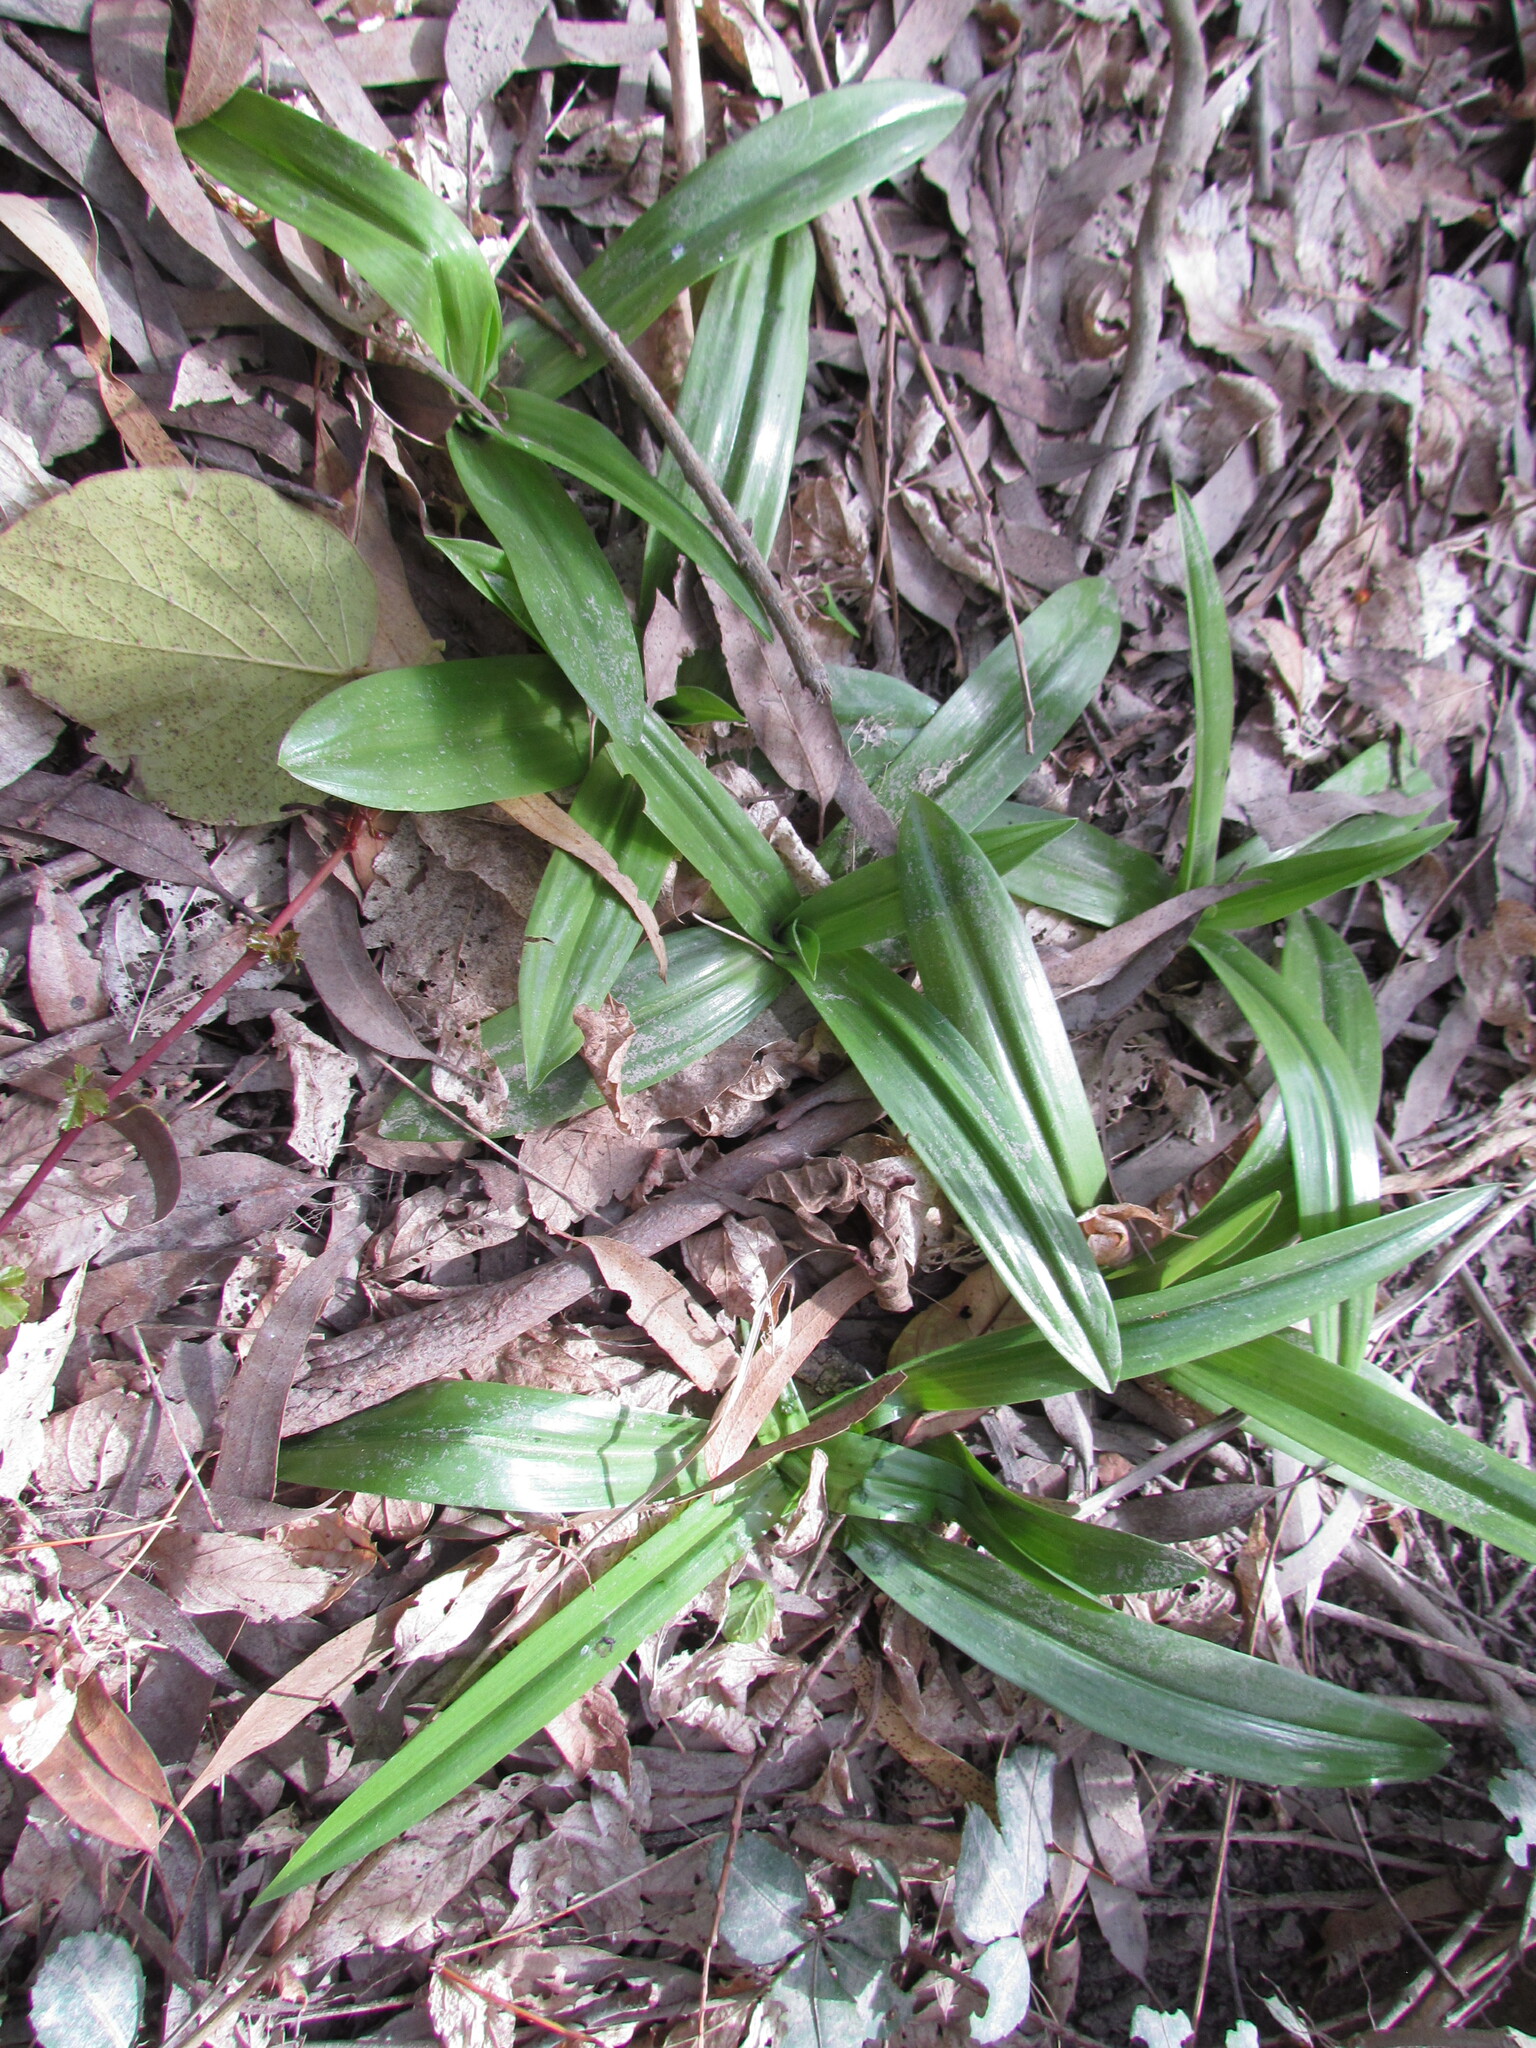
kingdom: Plantae
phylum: Tracheophyta
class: Liliopsida
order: Asparagales
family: Orchidaceae
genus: Chloraea
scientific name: Chloraea membranacea
